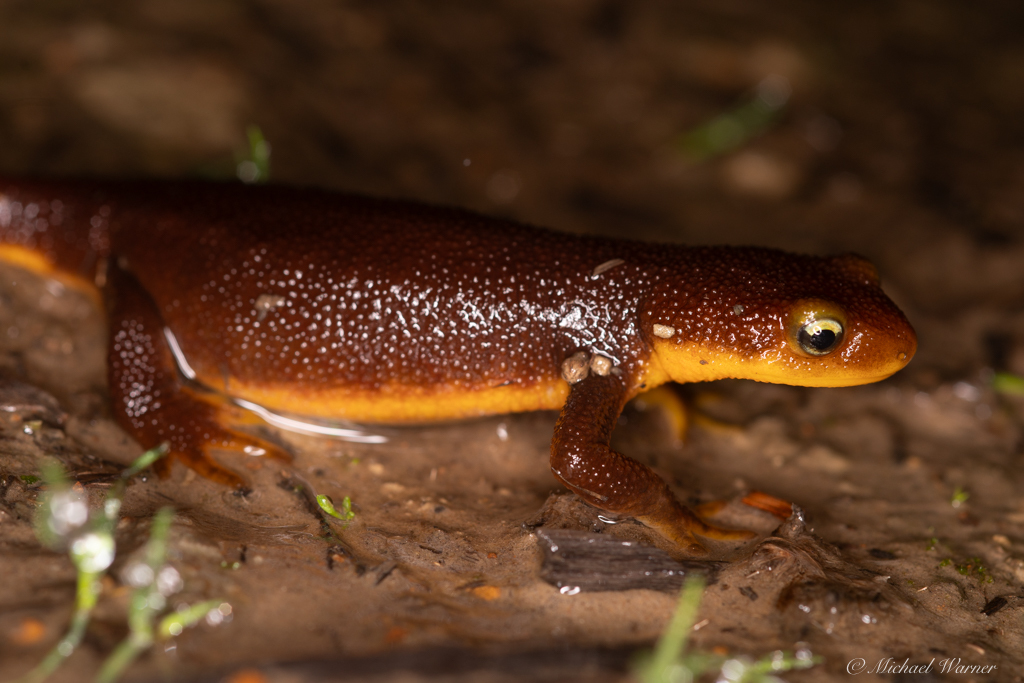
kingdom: Animalia
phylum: Chordata
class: Amphibia
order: Caudata
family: Salamandridae
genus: Taricha
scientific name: Taricha torosa
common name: California newt
